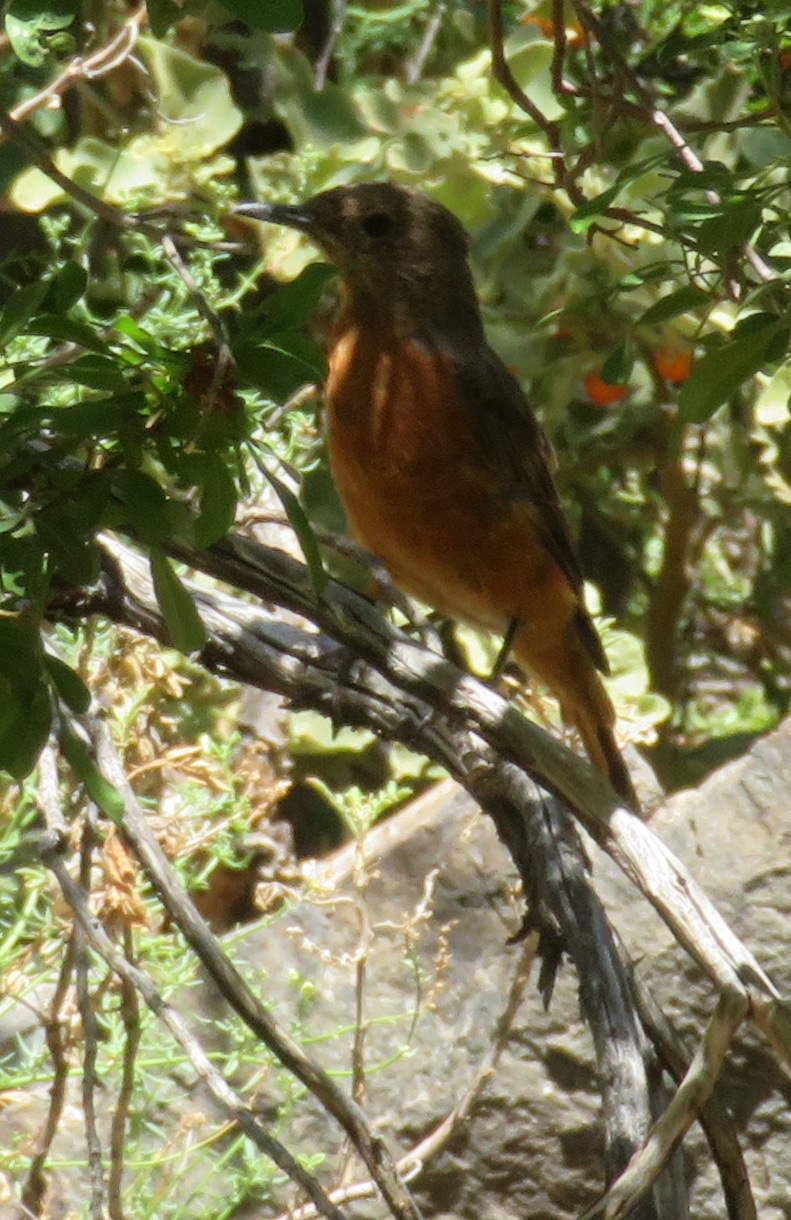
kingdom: Animalia
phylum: Chordata
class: Aves
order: Passeriformes
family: Muscicapidae
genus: Monticola
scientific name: Monticola rupestris
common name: Cape rock thrush
